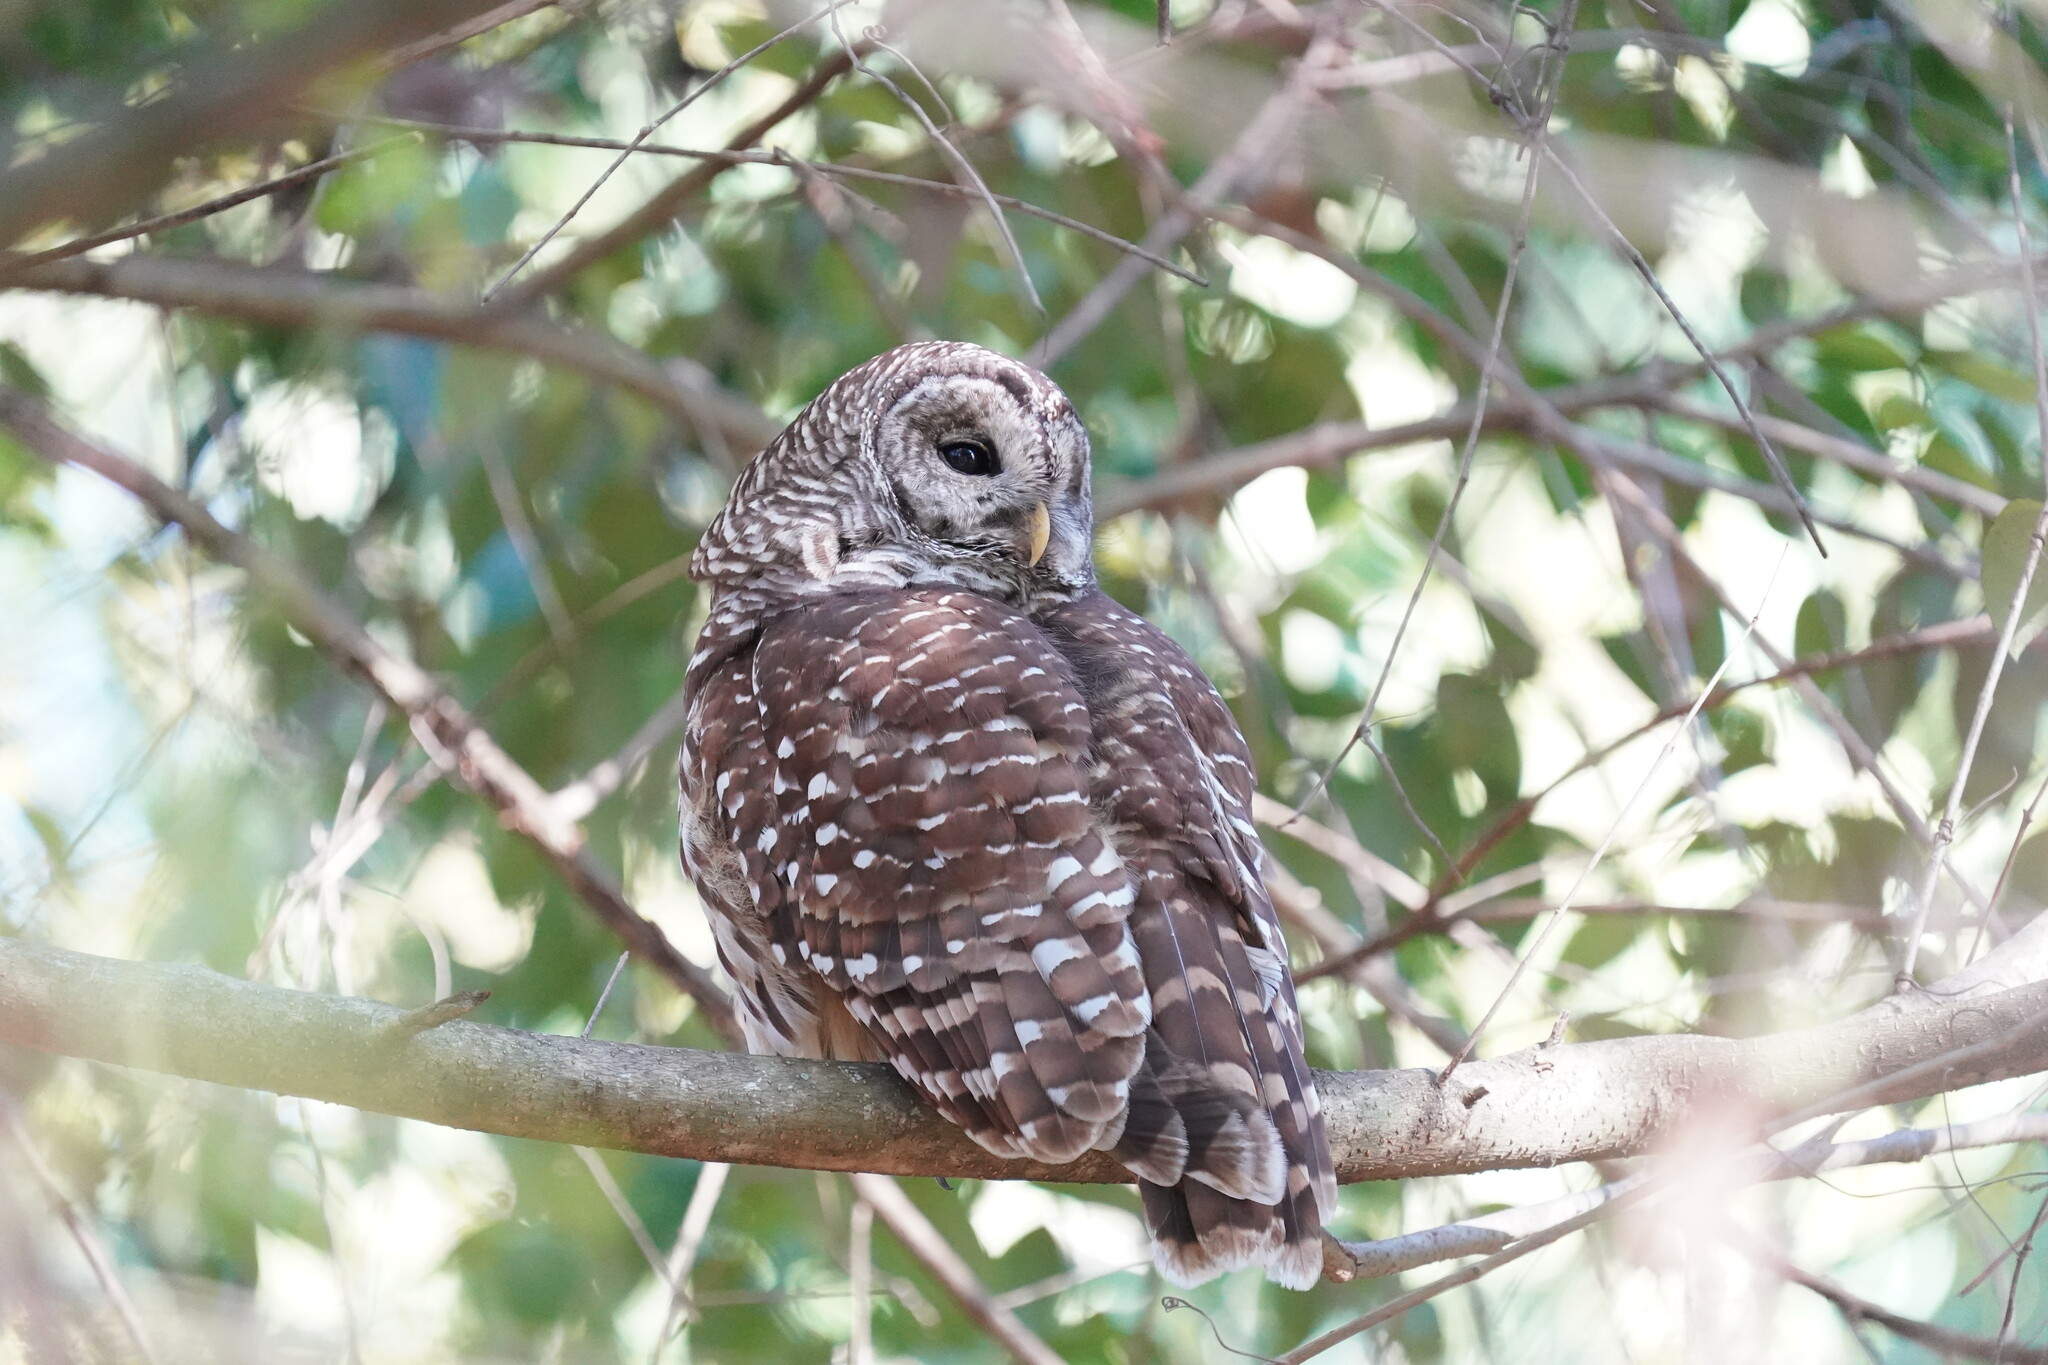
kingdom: Animalia
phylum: Chordata
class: Aves
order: Strigiformes
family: Strigidae
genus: Strix
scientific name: Strix varia
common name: Barred owl
